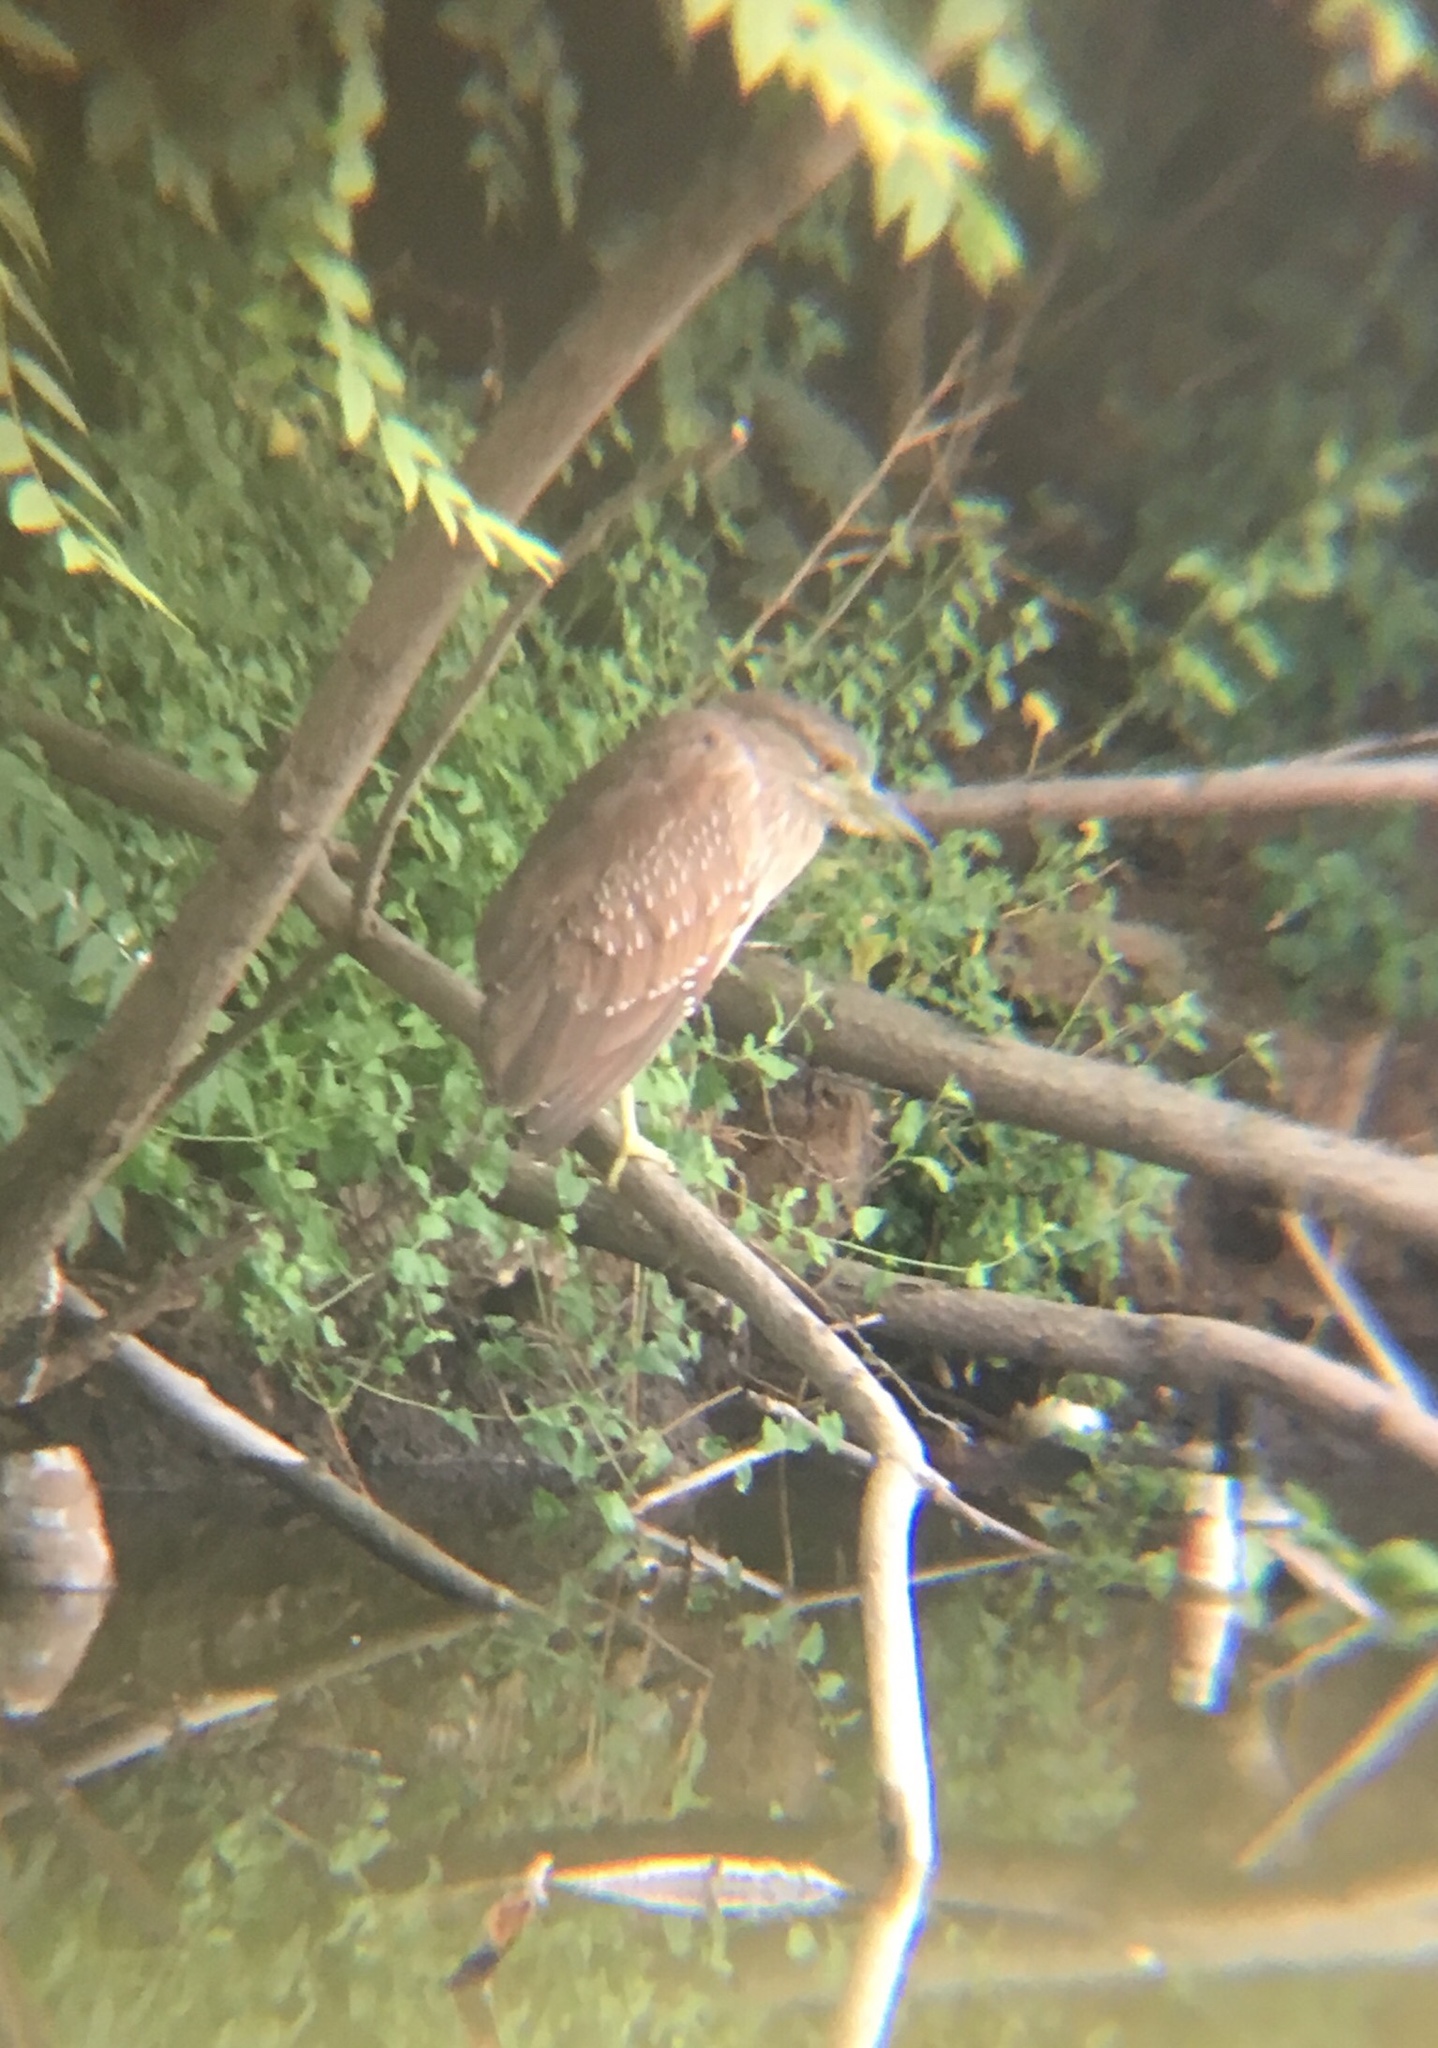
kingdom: Animalia
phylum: Chordata
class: Aves
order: Pelecaniformes
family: Ardeidae
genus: Nycticorax
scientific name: Nycticorax nycticorax
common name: Black-crowned night heron
